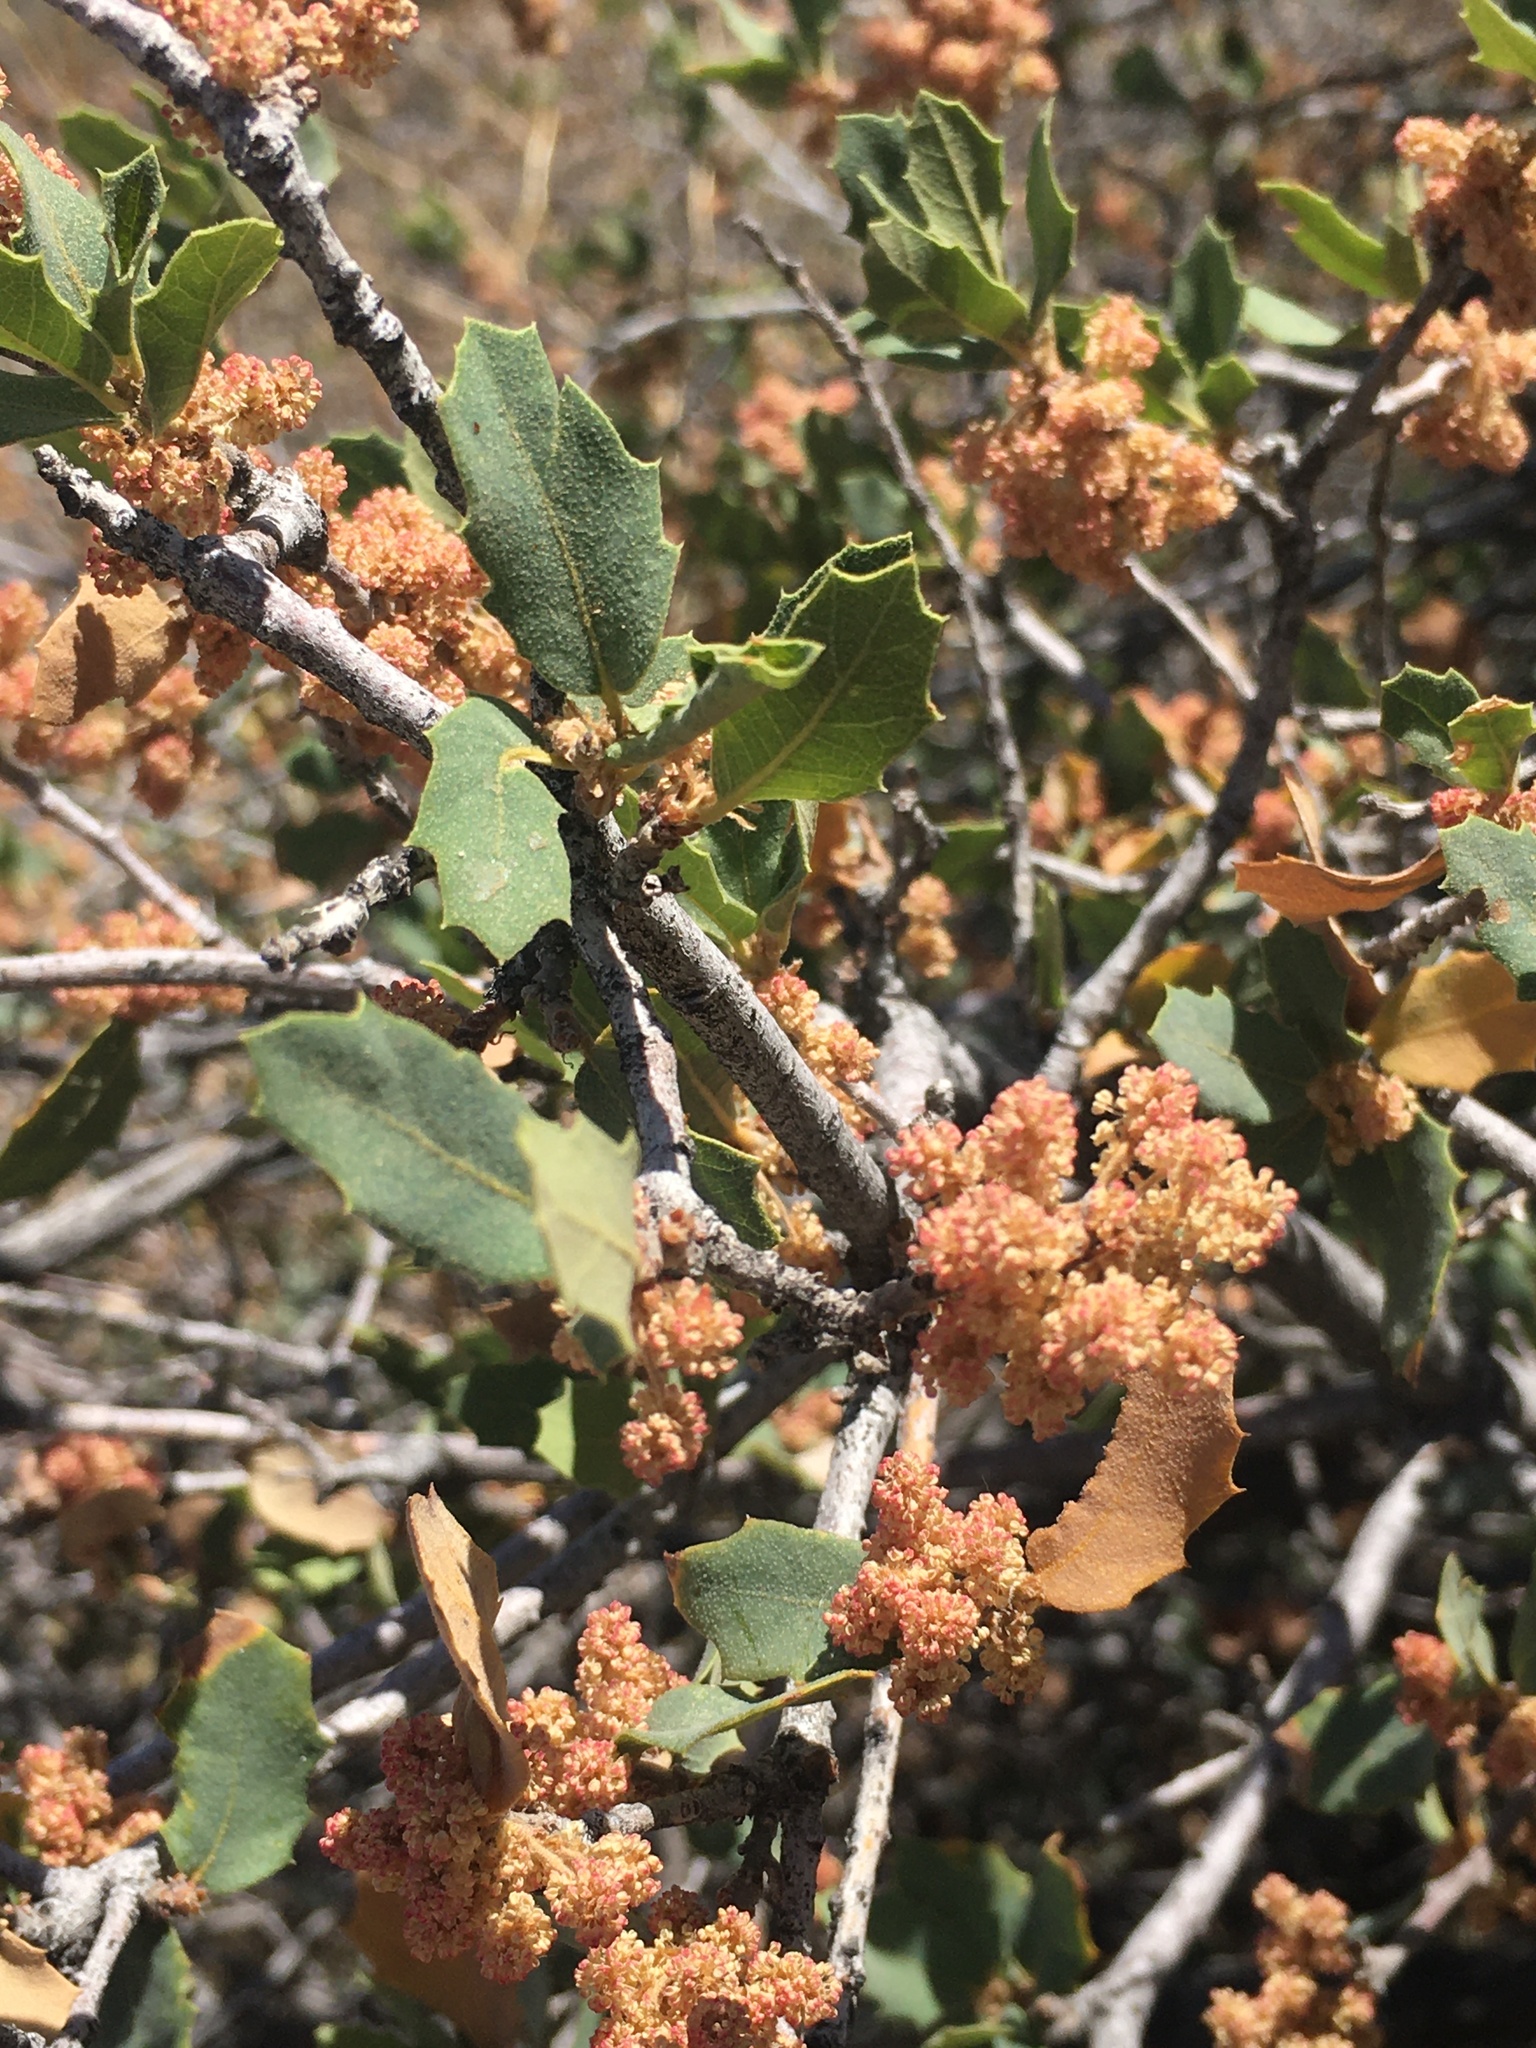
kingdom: Plantae
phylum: Tracheophyta
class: Magnoliopsida
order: Fagales
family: Fagaceae
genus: Quercus
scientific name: Quercus turbinella
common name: Sonoran scrub oak
